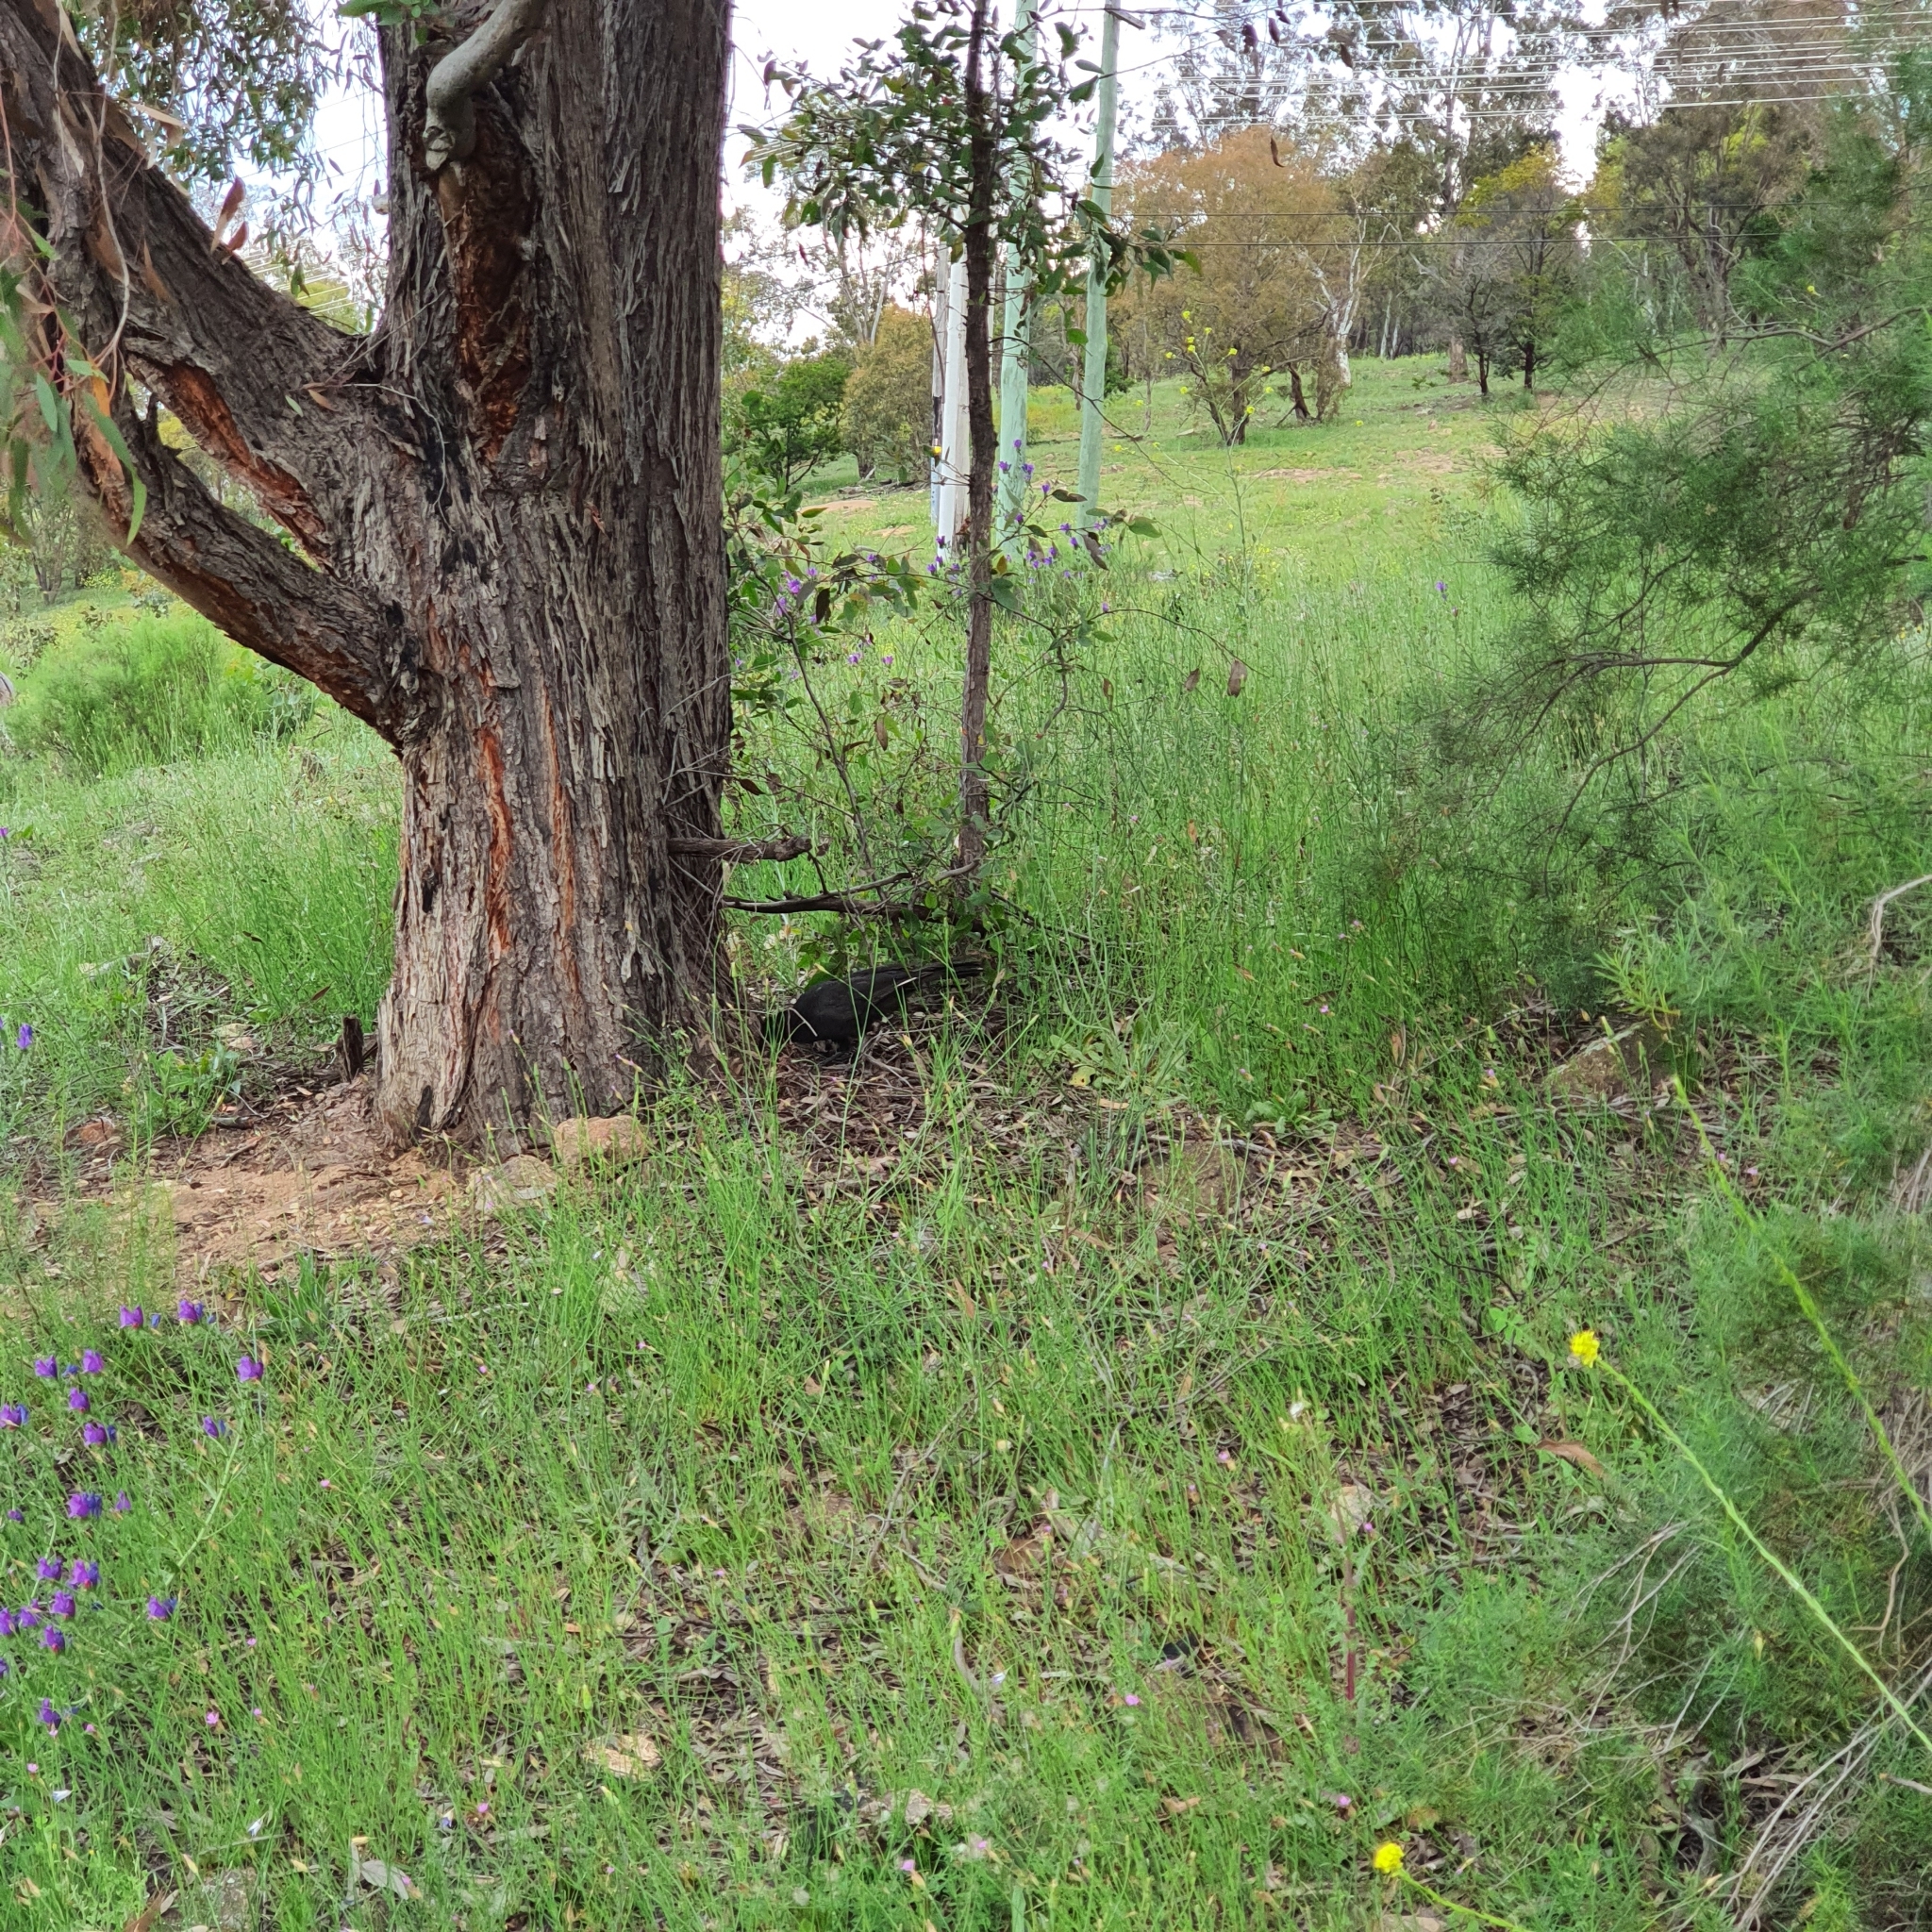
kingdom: Animalia
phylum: Chordata
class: Aves
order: Passeriformes
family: Corcoracidae
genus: Corcorax
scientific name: Corcorax melanoramphos
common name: White-winged chough
